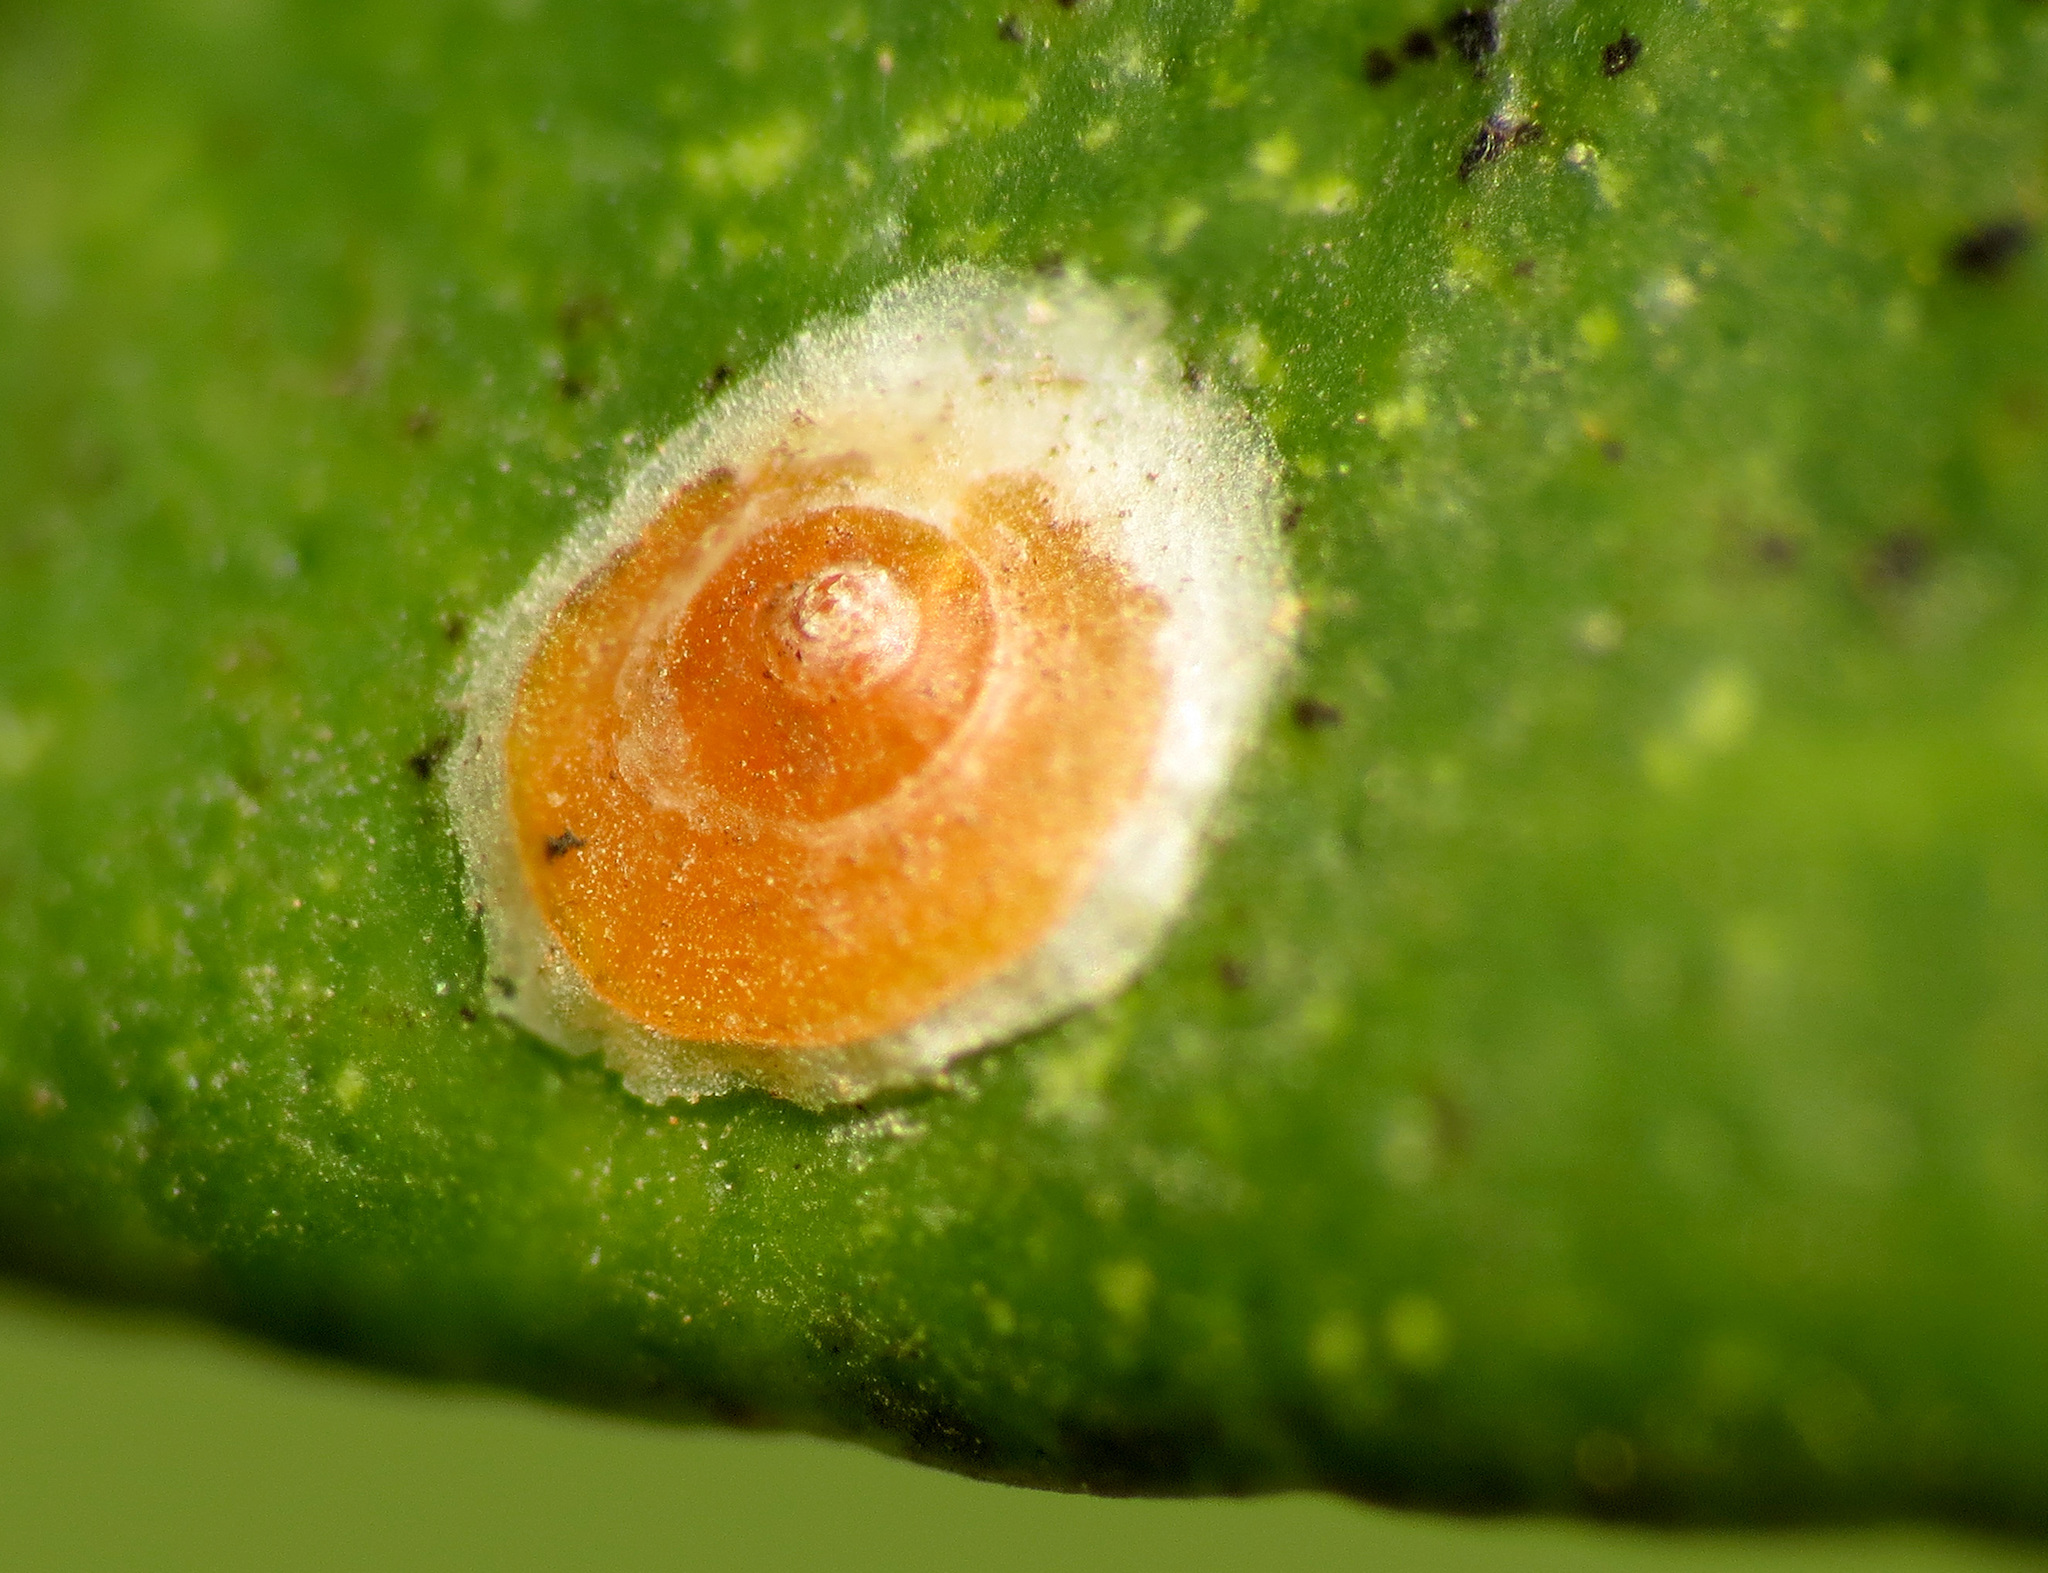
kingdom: Animalia
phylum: Arthropoda
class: Insecta
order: Hemiptera
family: Diaspididae
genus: Aonidiella
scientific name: Aonidiella aurantii
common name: California red scale
